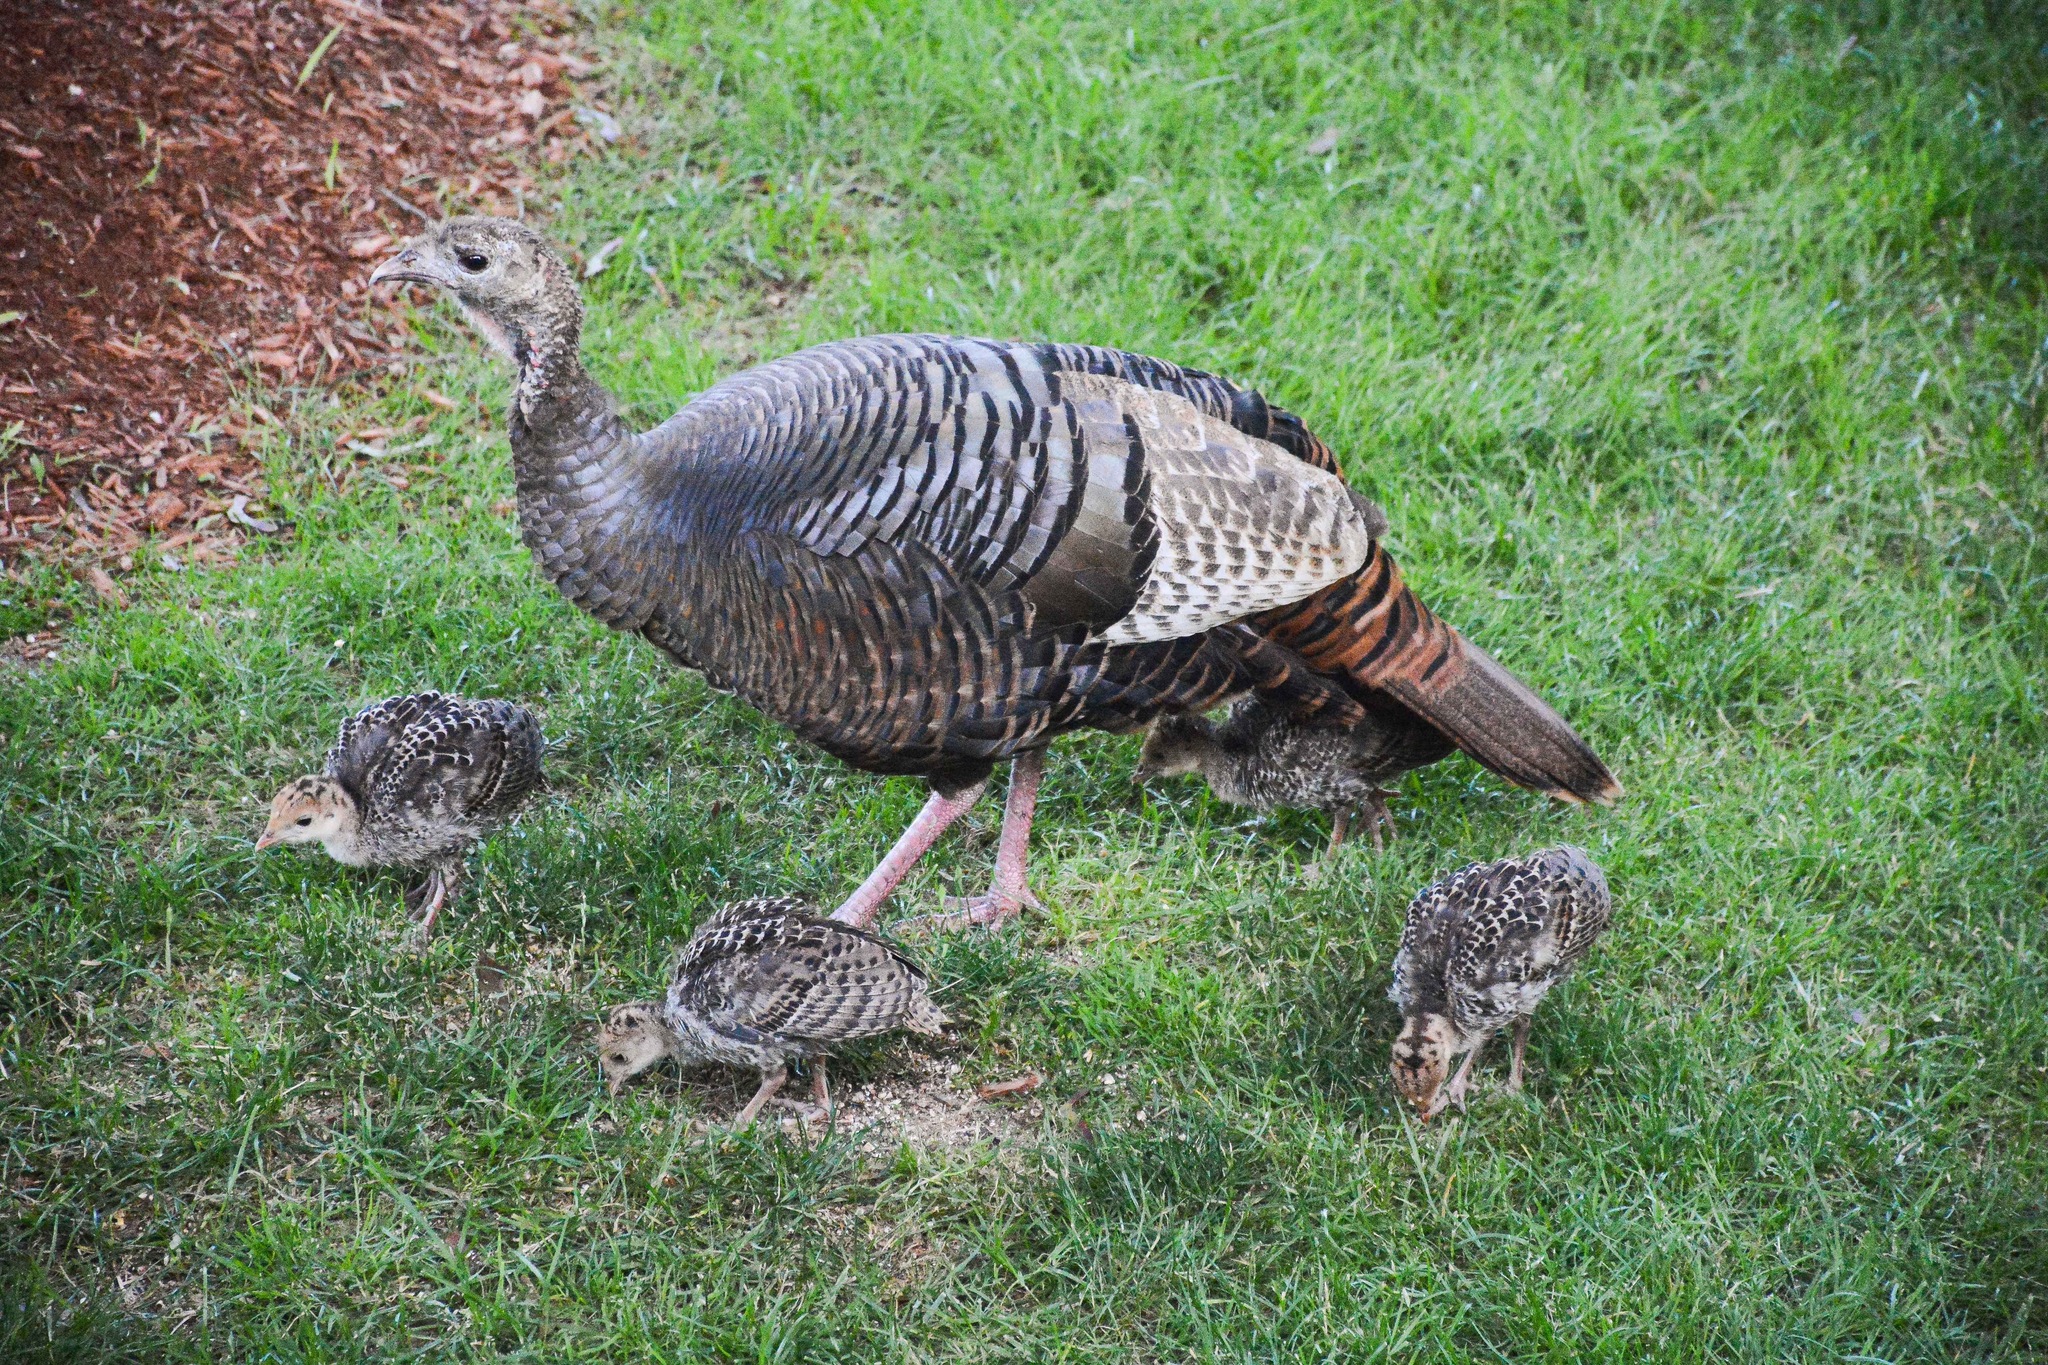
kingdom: Animalia
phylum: Chordata
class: Aves
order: Galliformes
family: Phasianidae
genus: Meleagris
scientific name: Meleagris gallopavo
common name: Wild turkey
